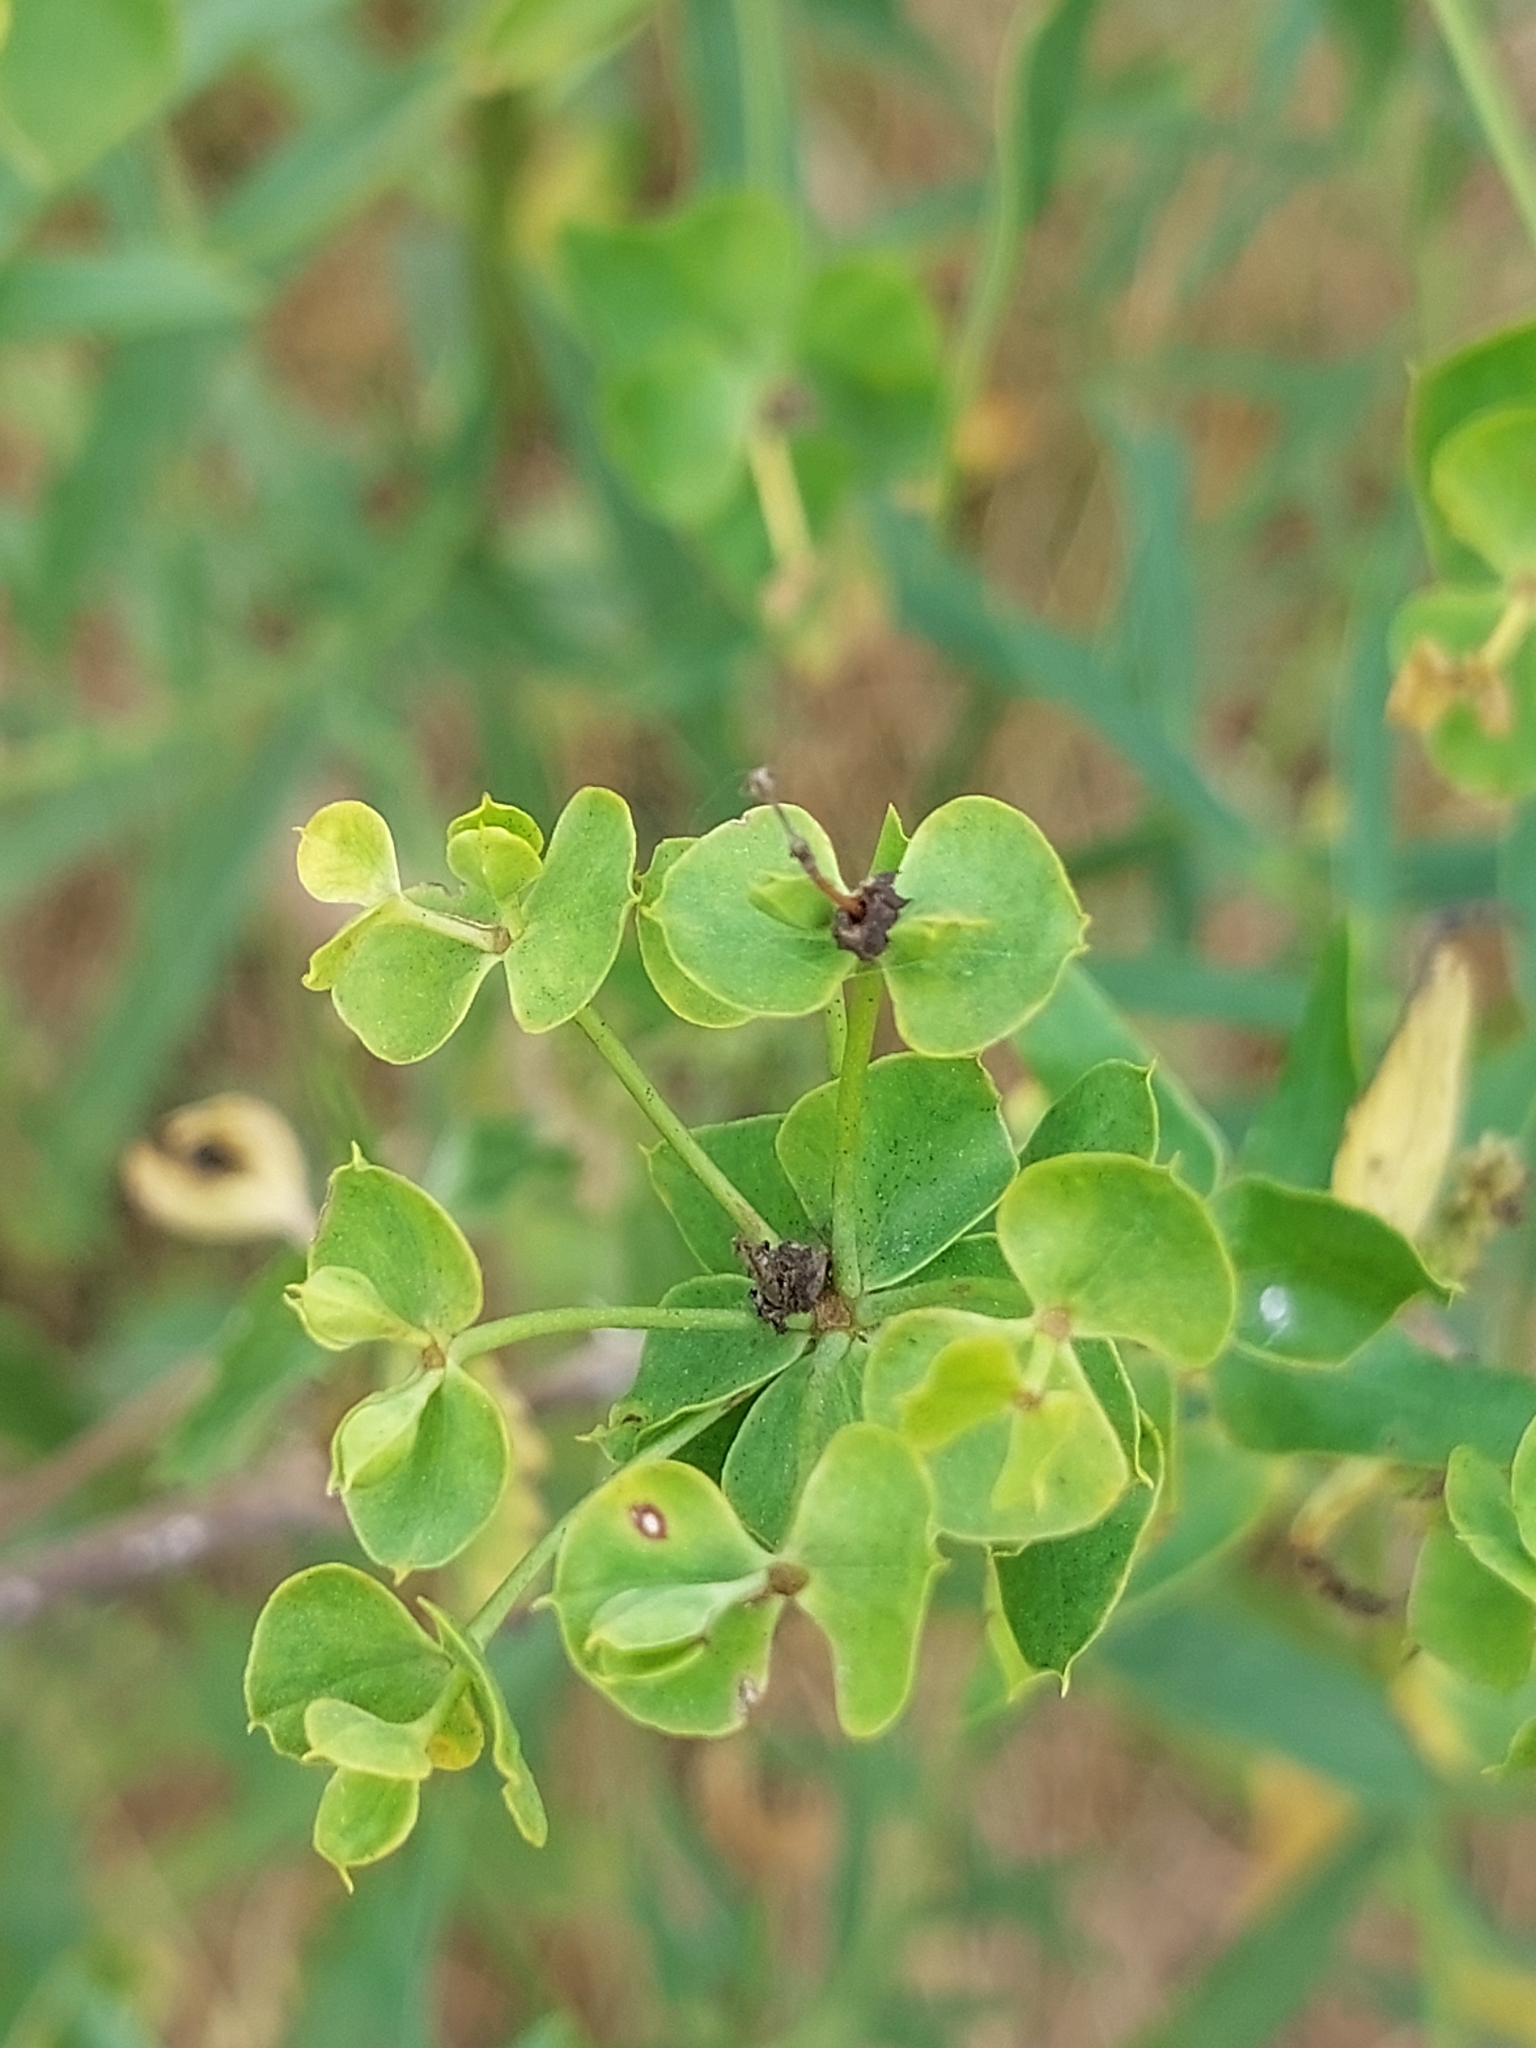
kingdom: Plantae
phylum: Tracheophyta
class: Magnoliopsida
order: Malpighiales
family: Euphorbiaceae
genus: Euphorbia
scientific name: Euphorbia virgata
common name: Leafy spurge
